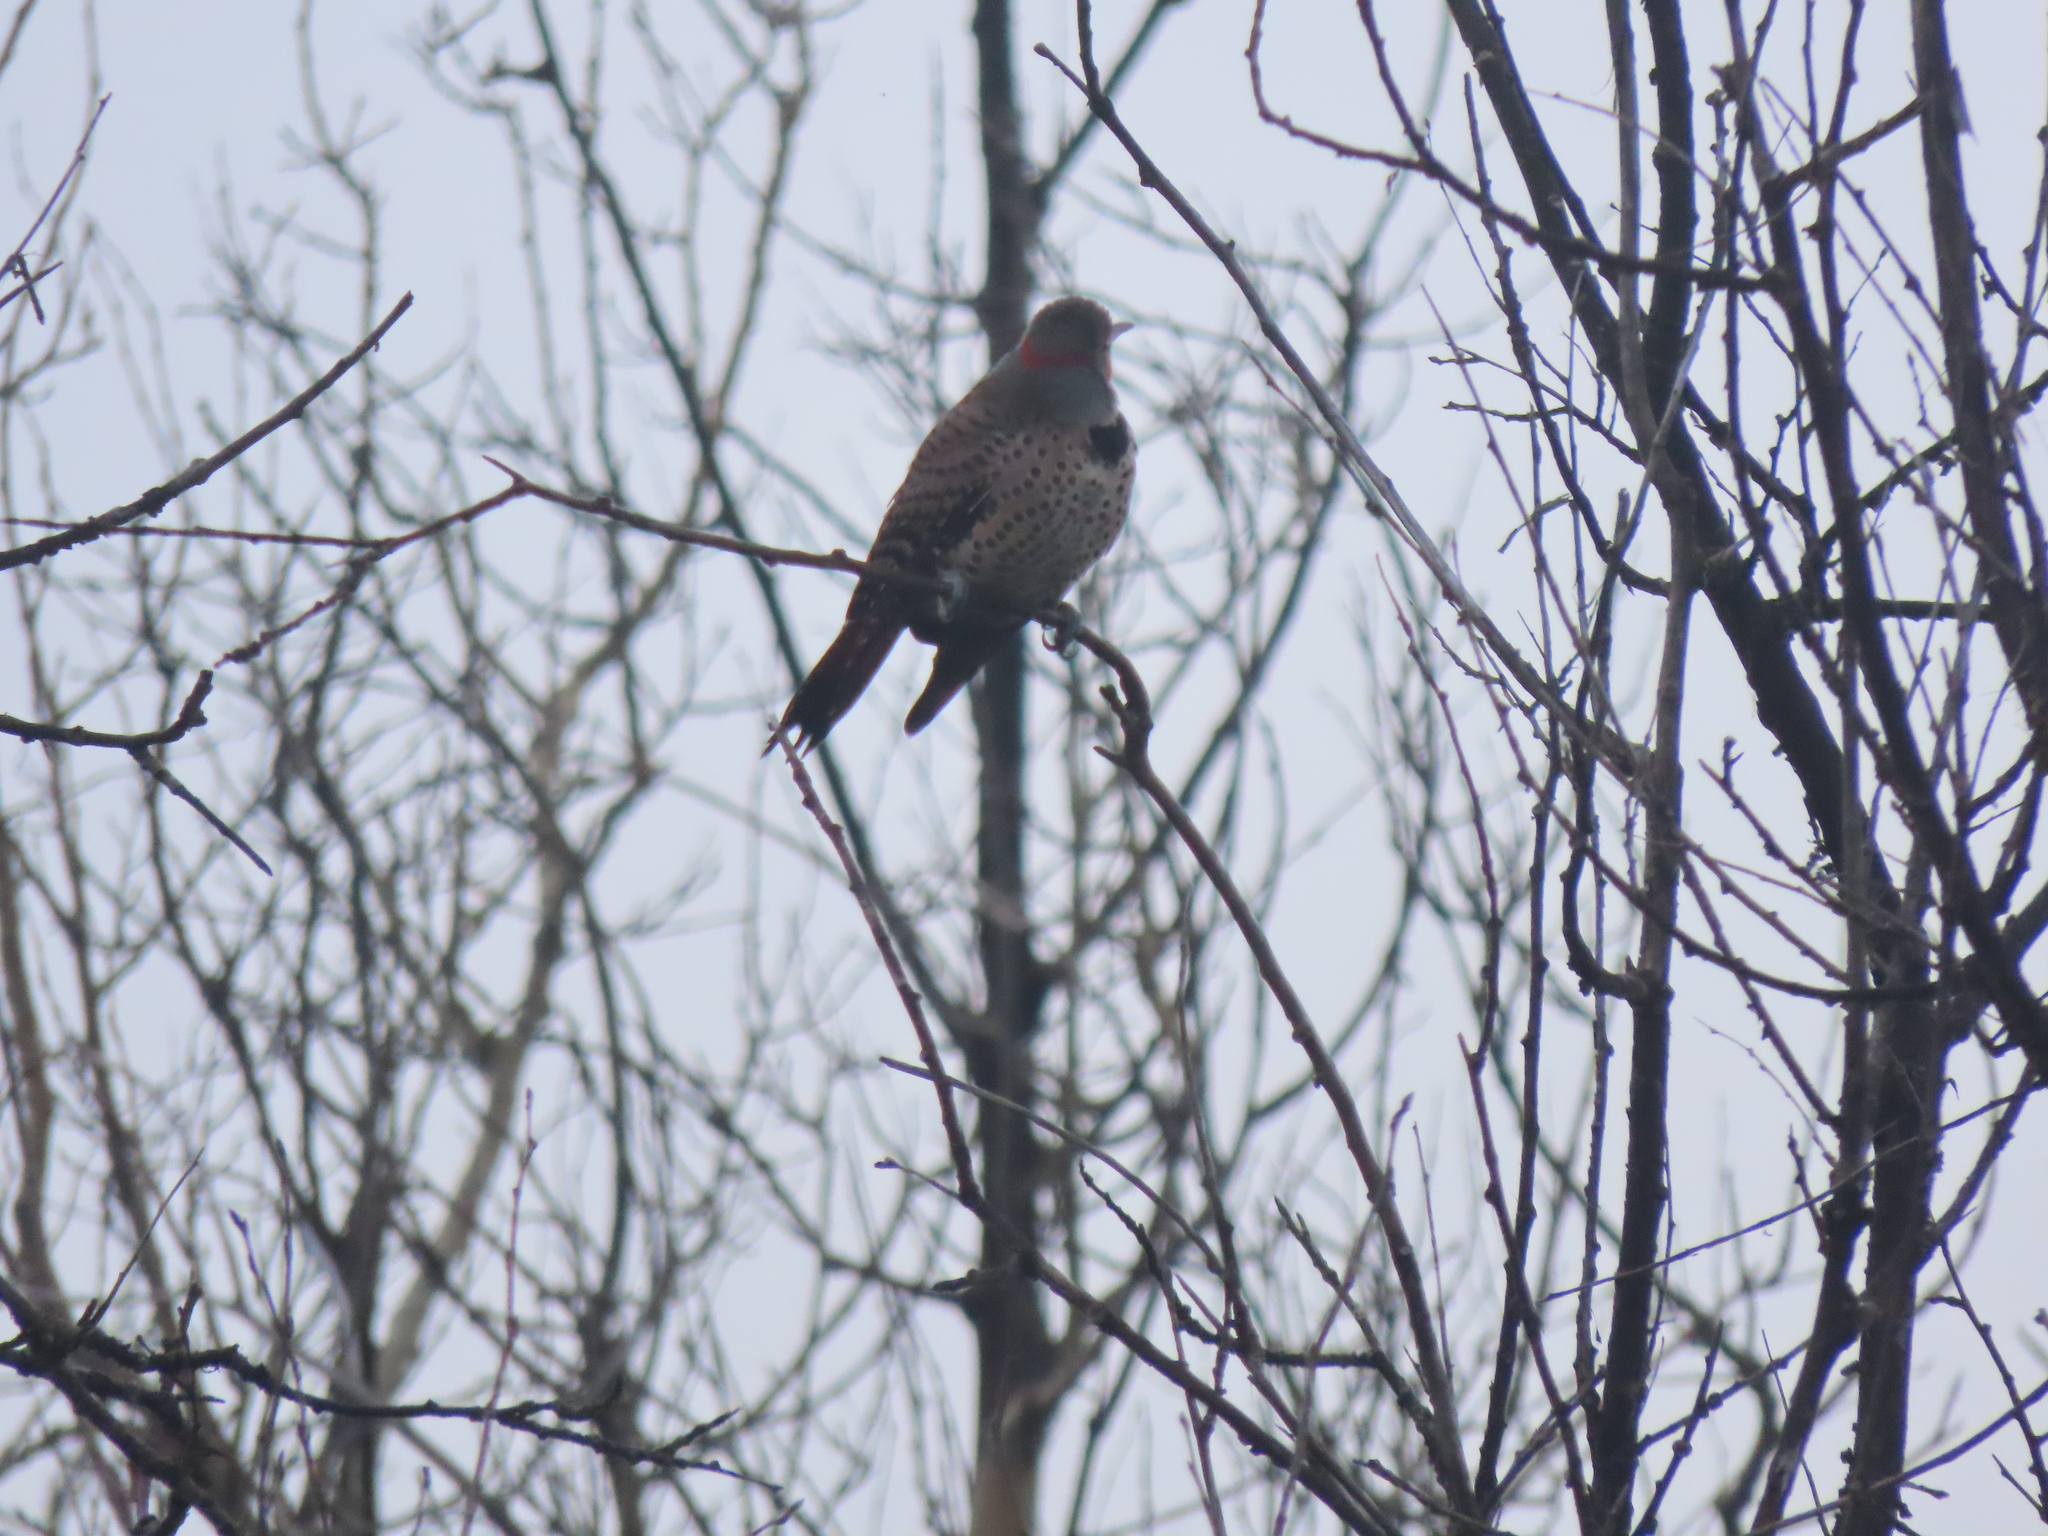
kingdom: Animalia
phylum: Chordata
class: Aves
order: Piciformes
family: Picidae
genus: Colaptes
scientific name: Colaptes auratus
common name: Northern flicker
